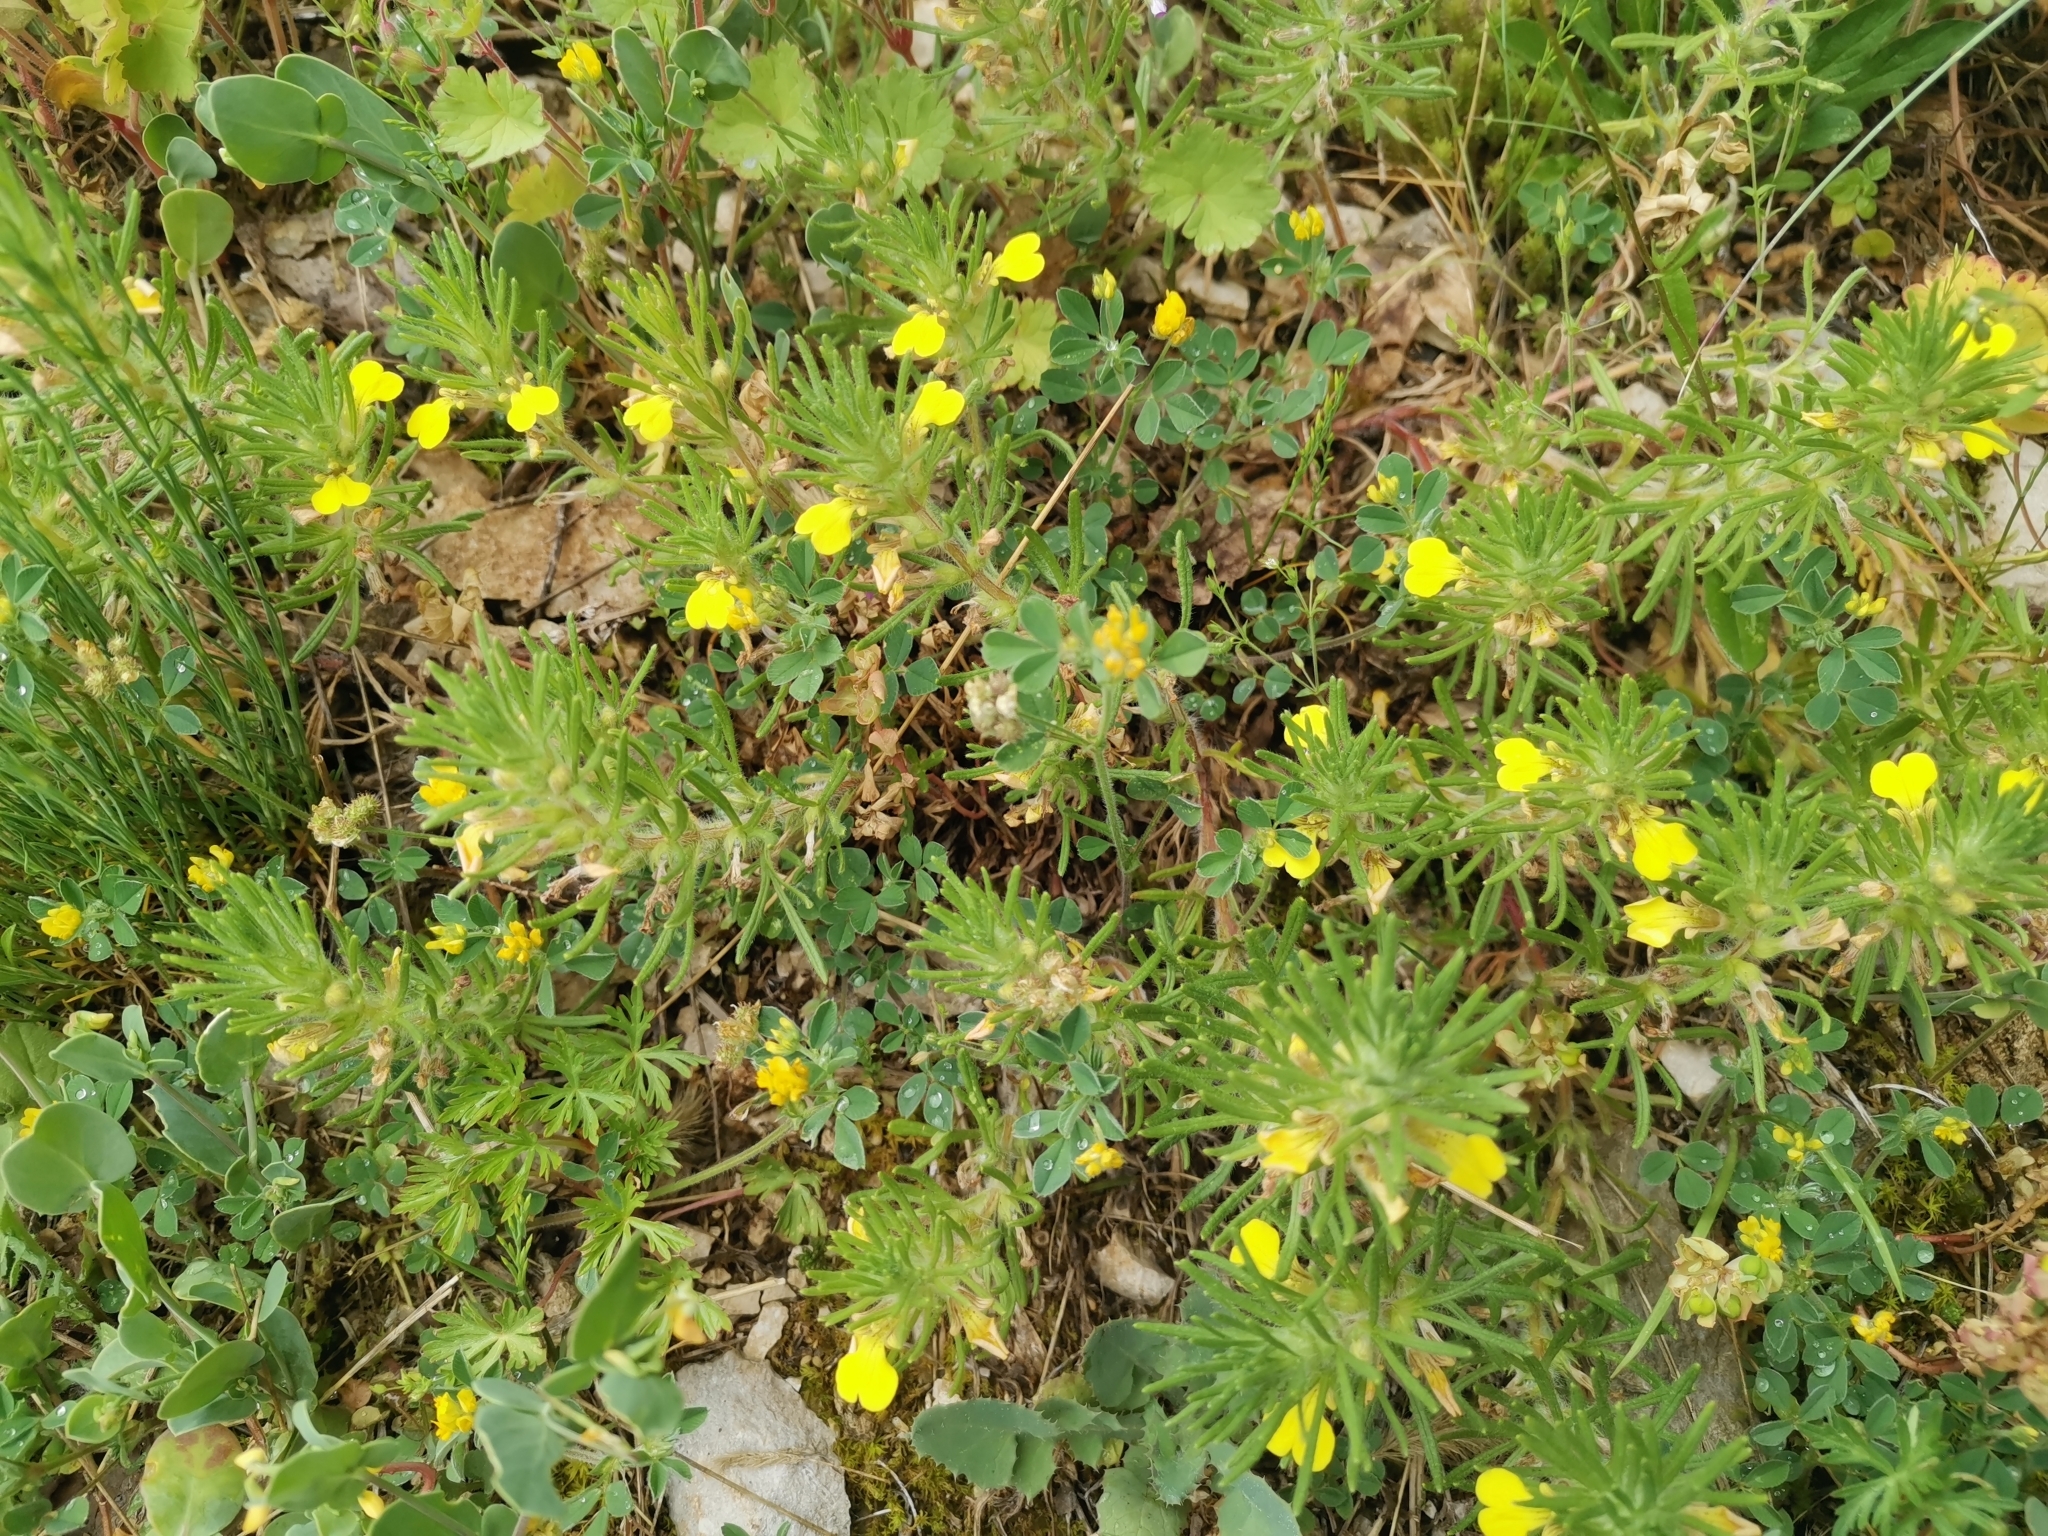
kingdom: Plantae
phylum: Tracheophyta
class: Magnoliopsida
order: Lamiales
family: Lamiaceae
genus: Ajuga
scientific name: Ajuga chamaepitys
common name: Ground-pine
